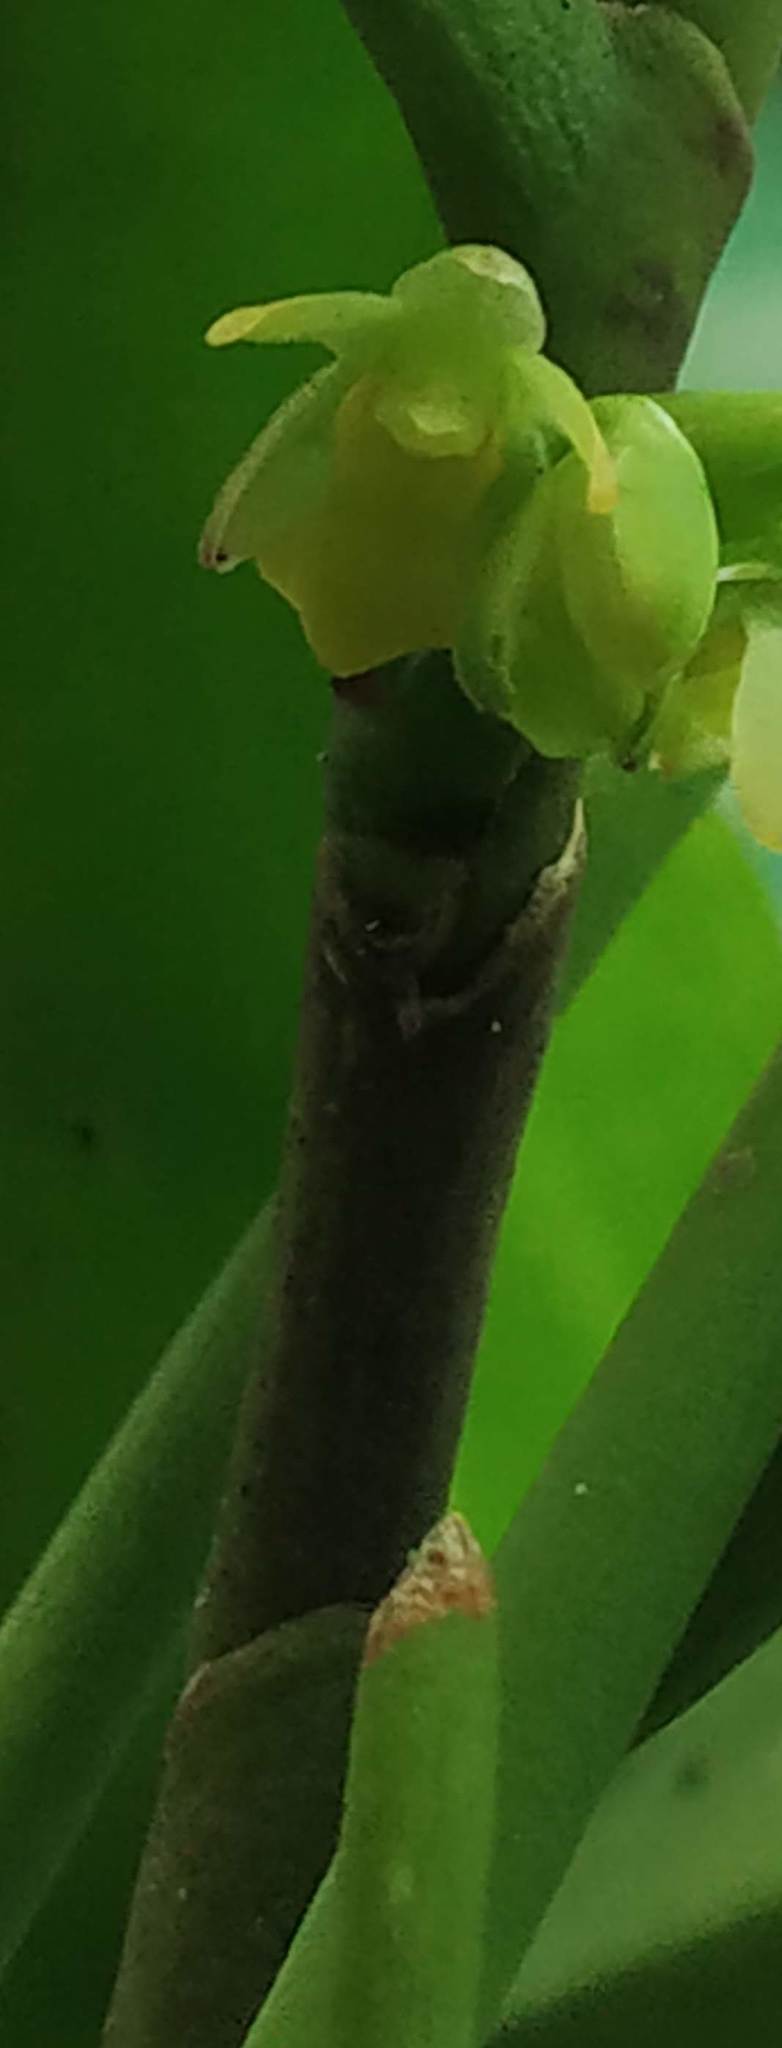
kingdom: Plantae
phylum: Tracheophyta
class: Liliopsida
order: Asparagales
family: Orchidaceae
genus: Luisia
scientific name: Luisia tristis
